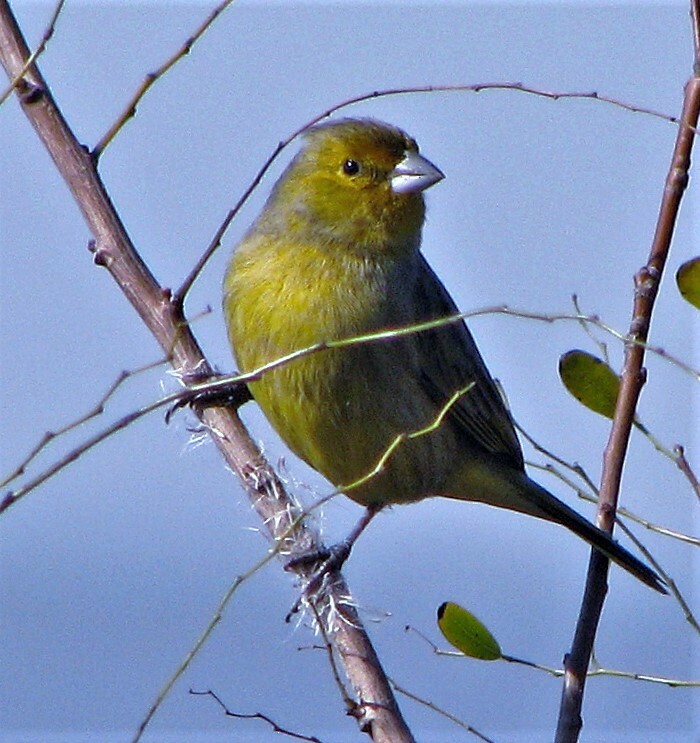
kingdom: Animalia
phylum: Chordata
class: Aves
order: Passeriformes
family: Thraupidae
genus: Sicalis
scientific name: Sicalis flaveola
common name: Saffron finch
